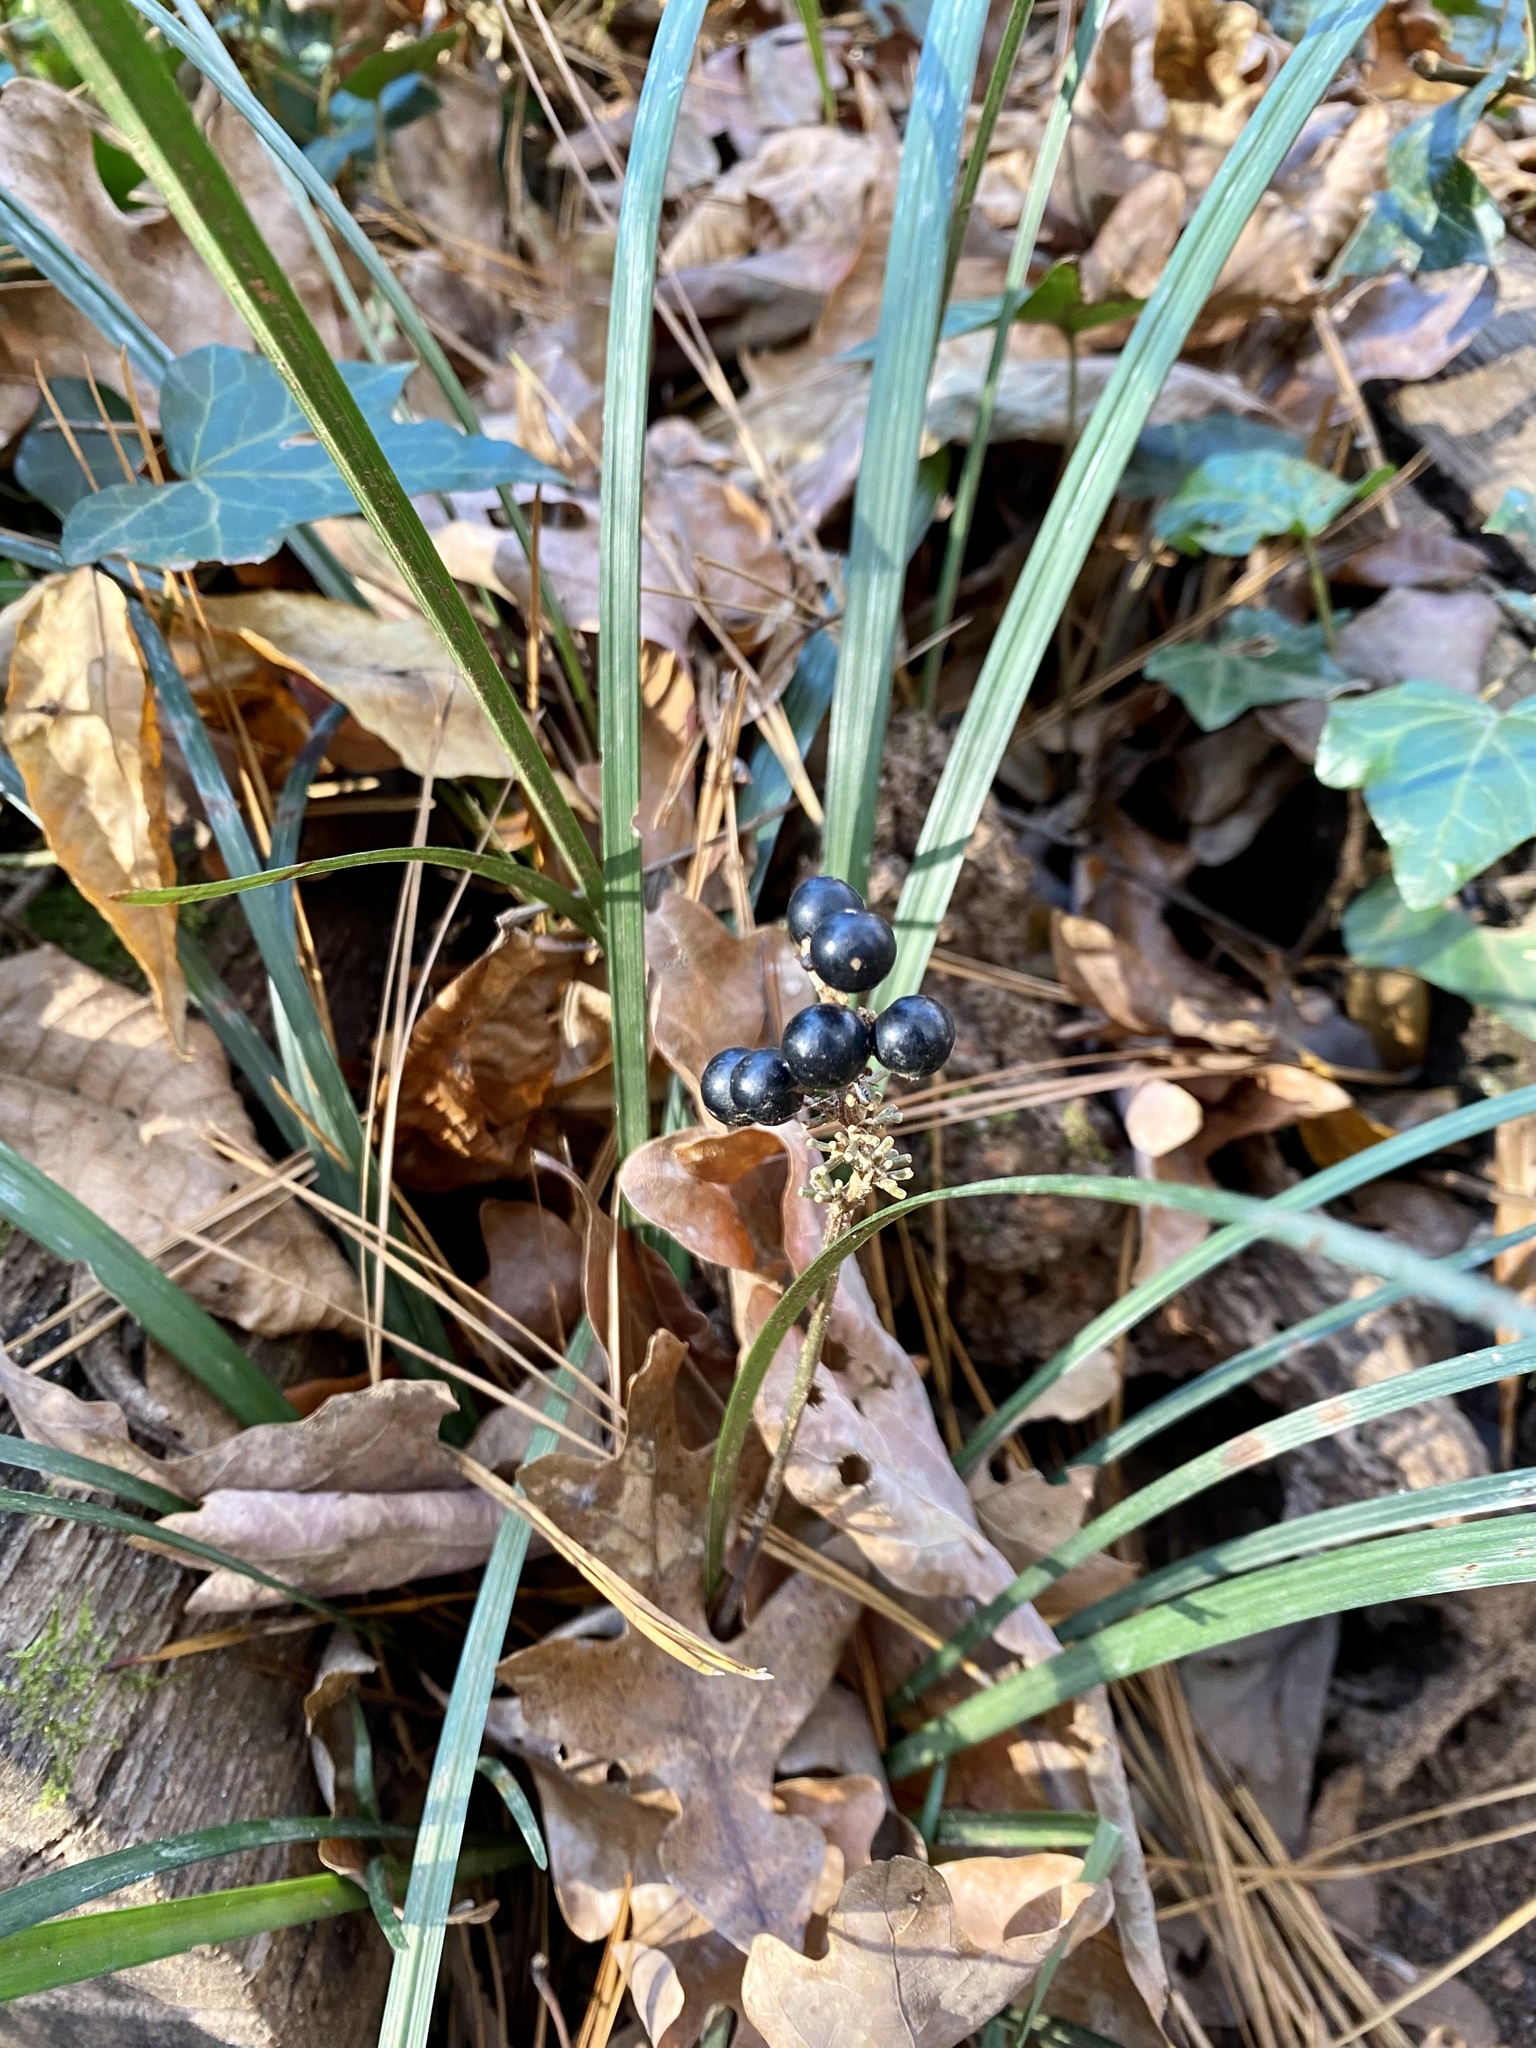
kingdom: Plantae
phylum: Tracheophyta
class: Liliopsida
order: Asparagales
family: Asparagaceae
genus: Liriope
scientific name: Liriope muscari
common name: Big blue lilyturf
